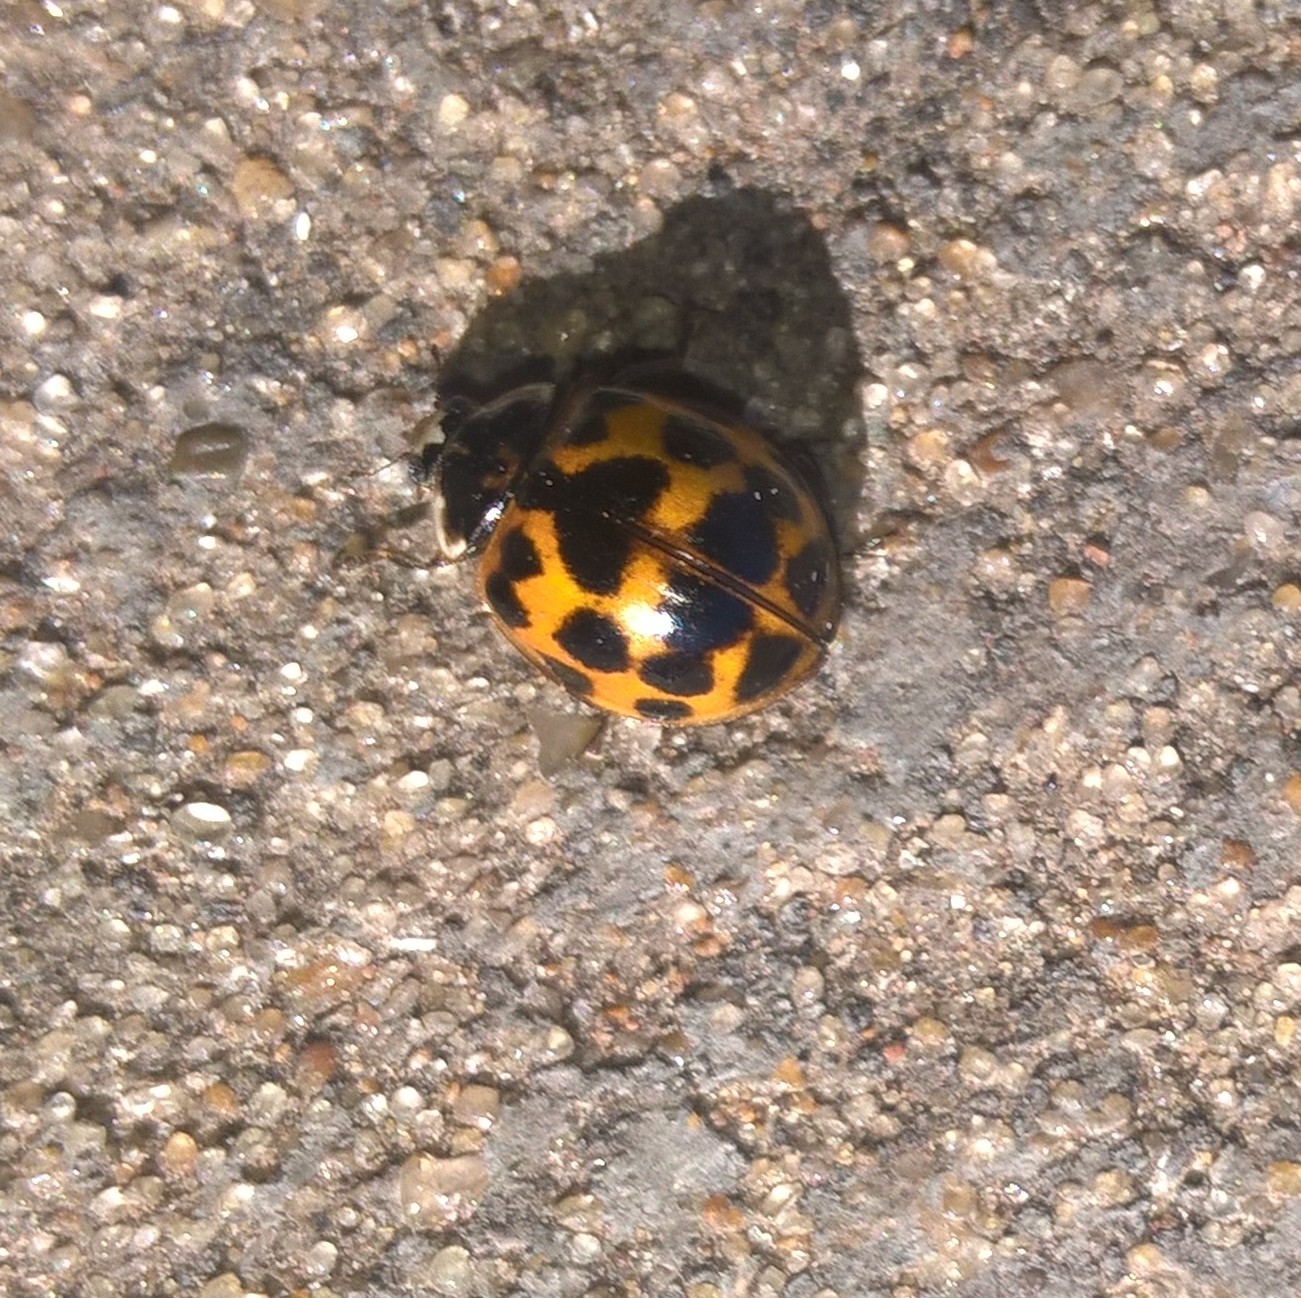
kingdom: Animalia
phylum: Arthropoda
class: Insecta
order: Coleoptera
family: Coccinellidae
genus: Harmonia
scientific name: Harmonia axyridis
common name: Harlequin ladybird
